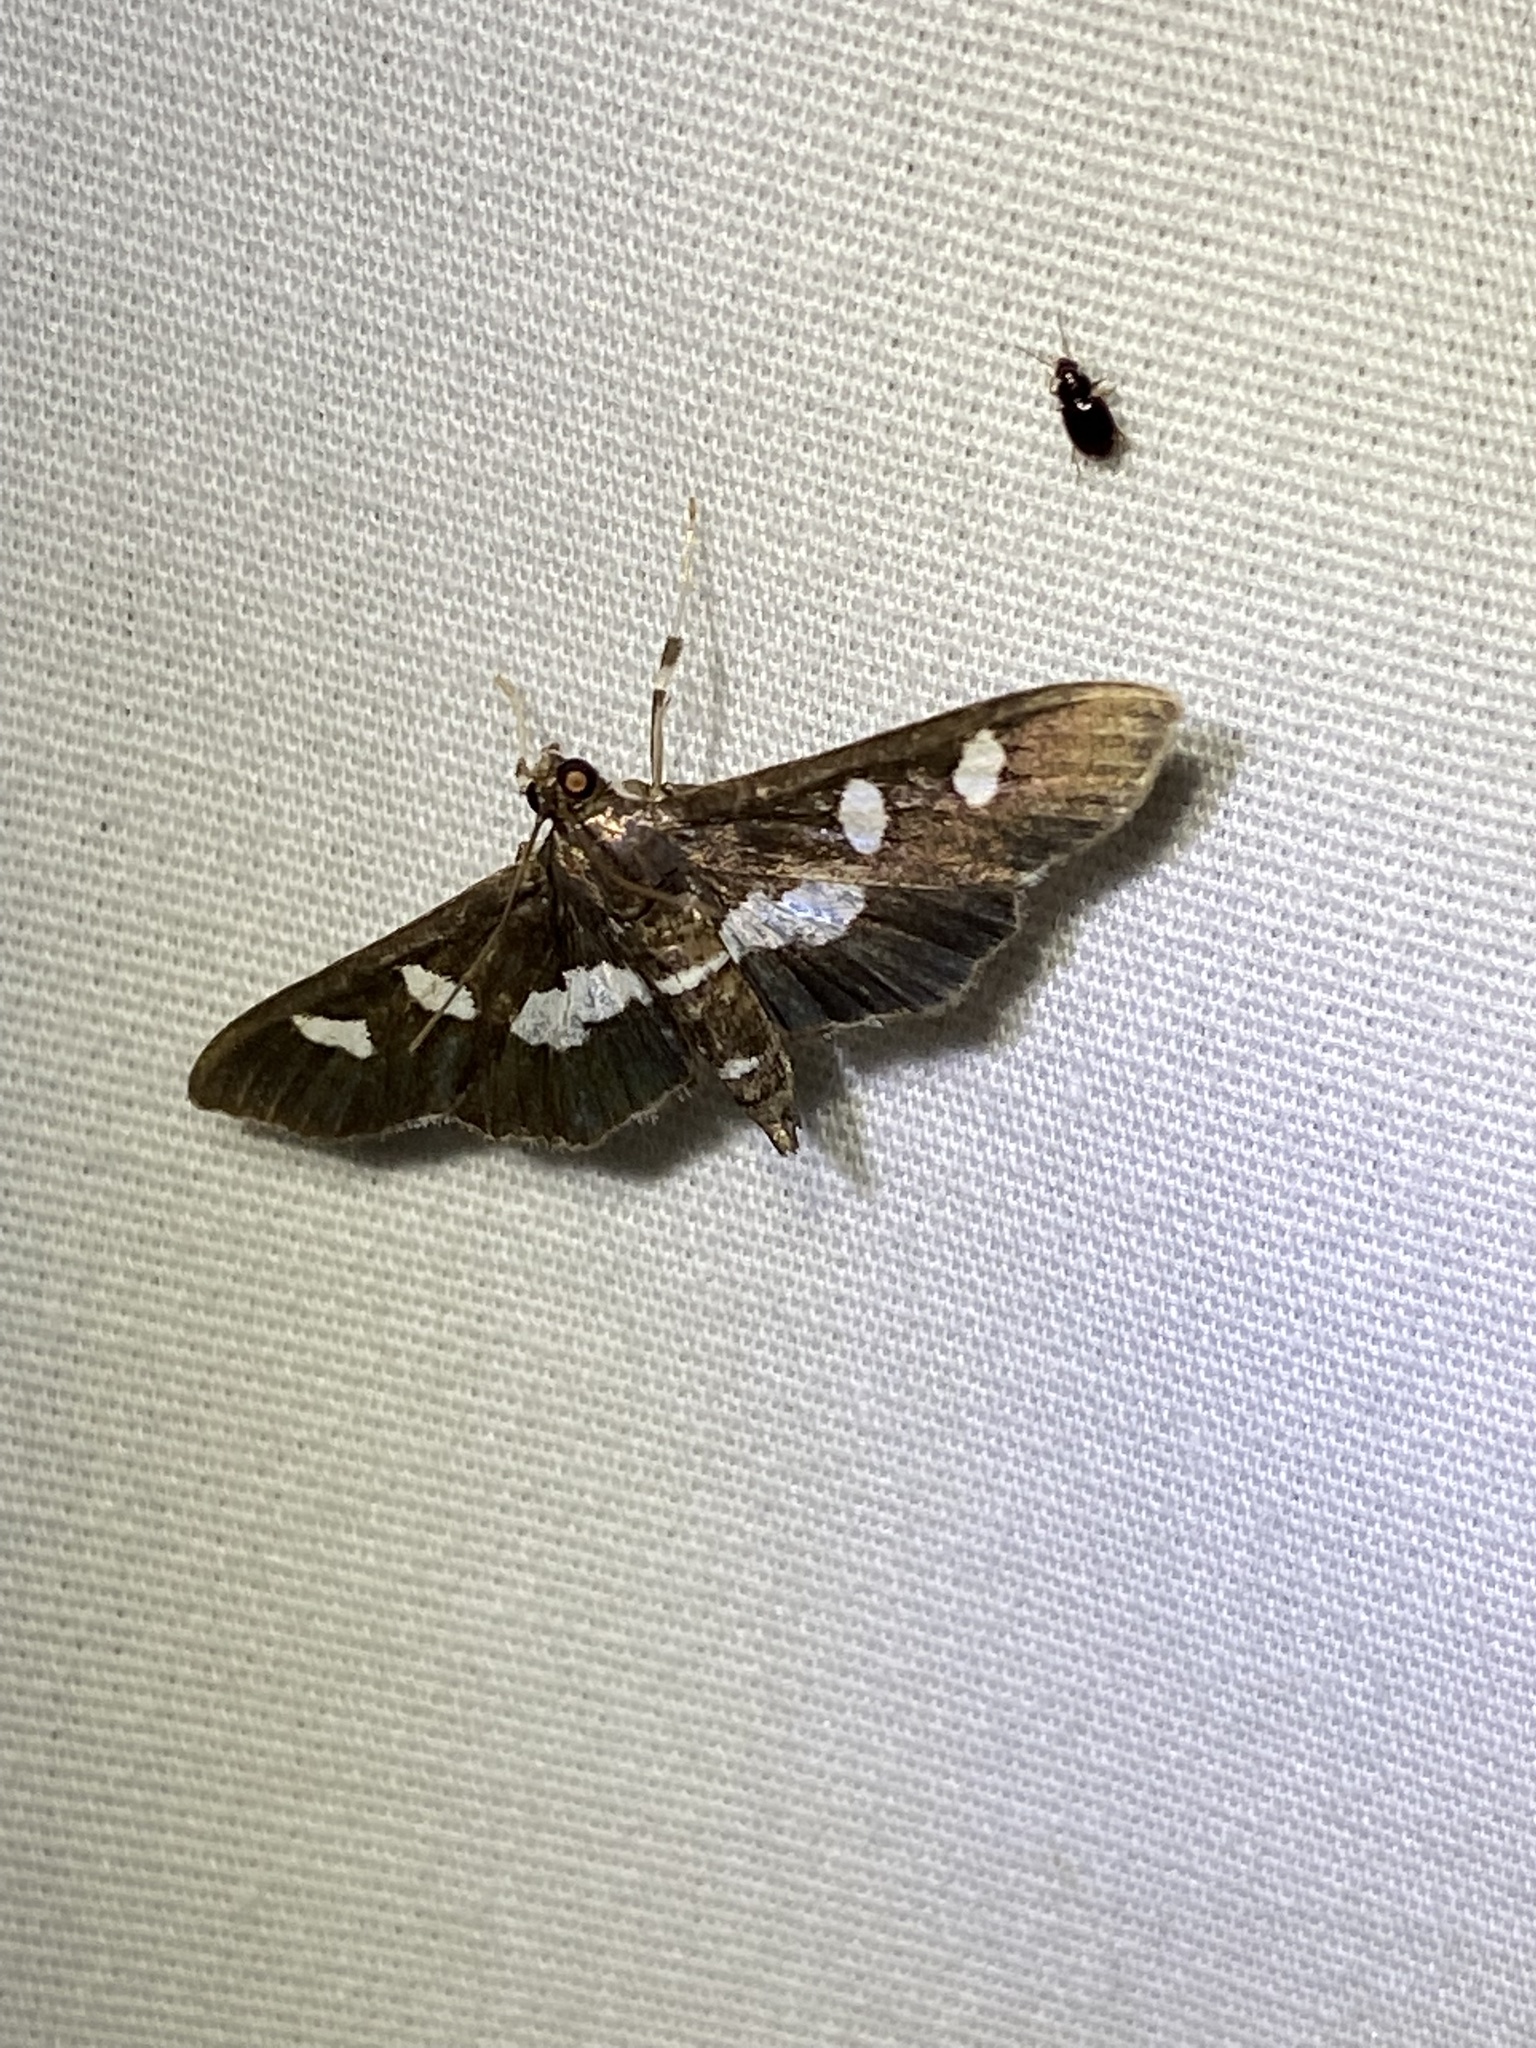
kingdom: Animalia
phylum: Arthropoda
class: Insecta
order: Lepidoptera
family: Crambidae
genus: Desmia
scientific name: Desmia
